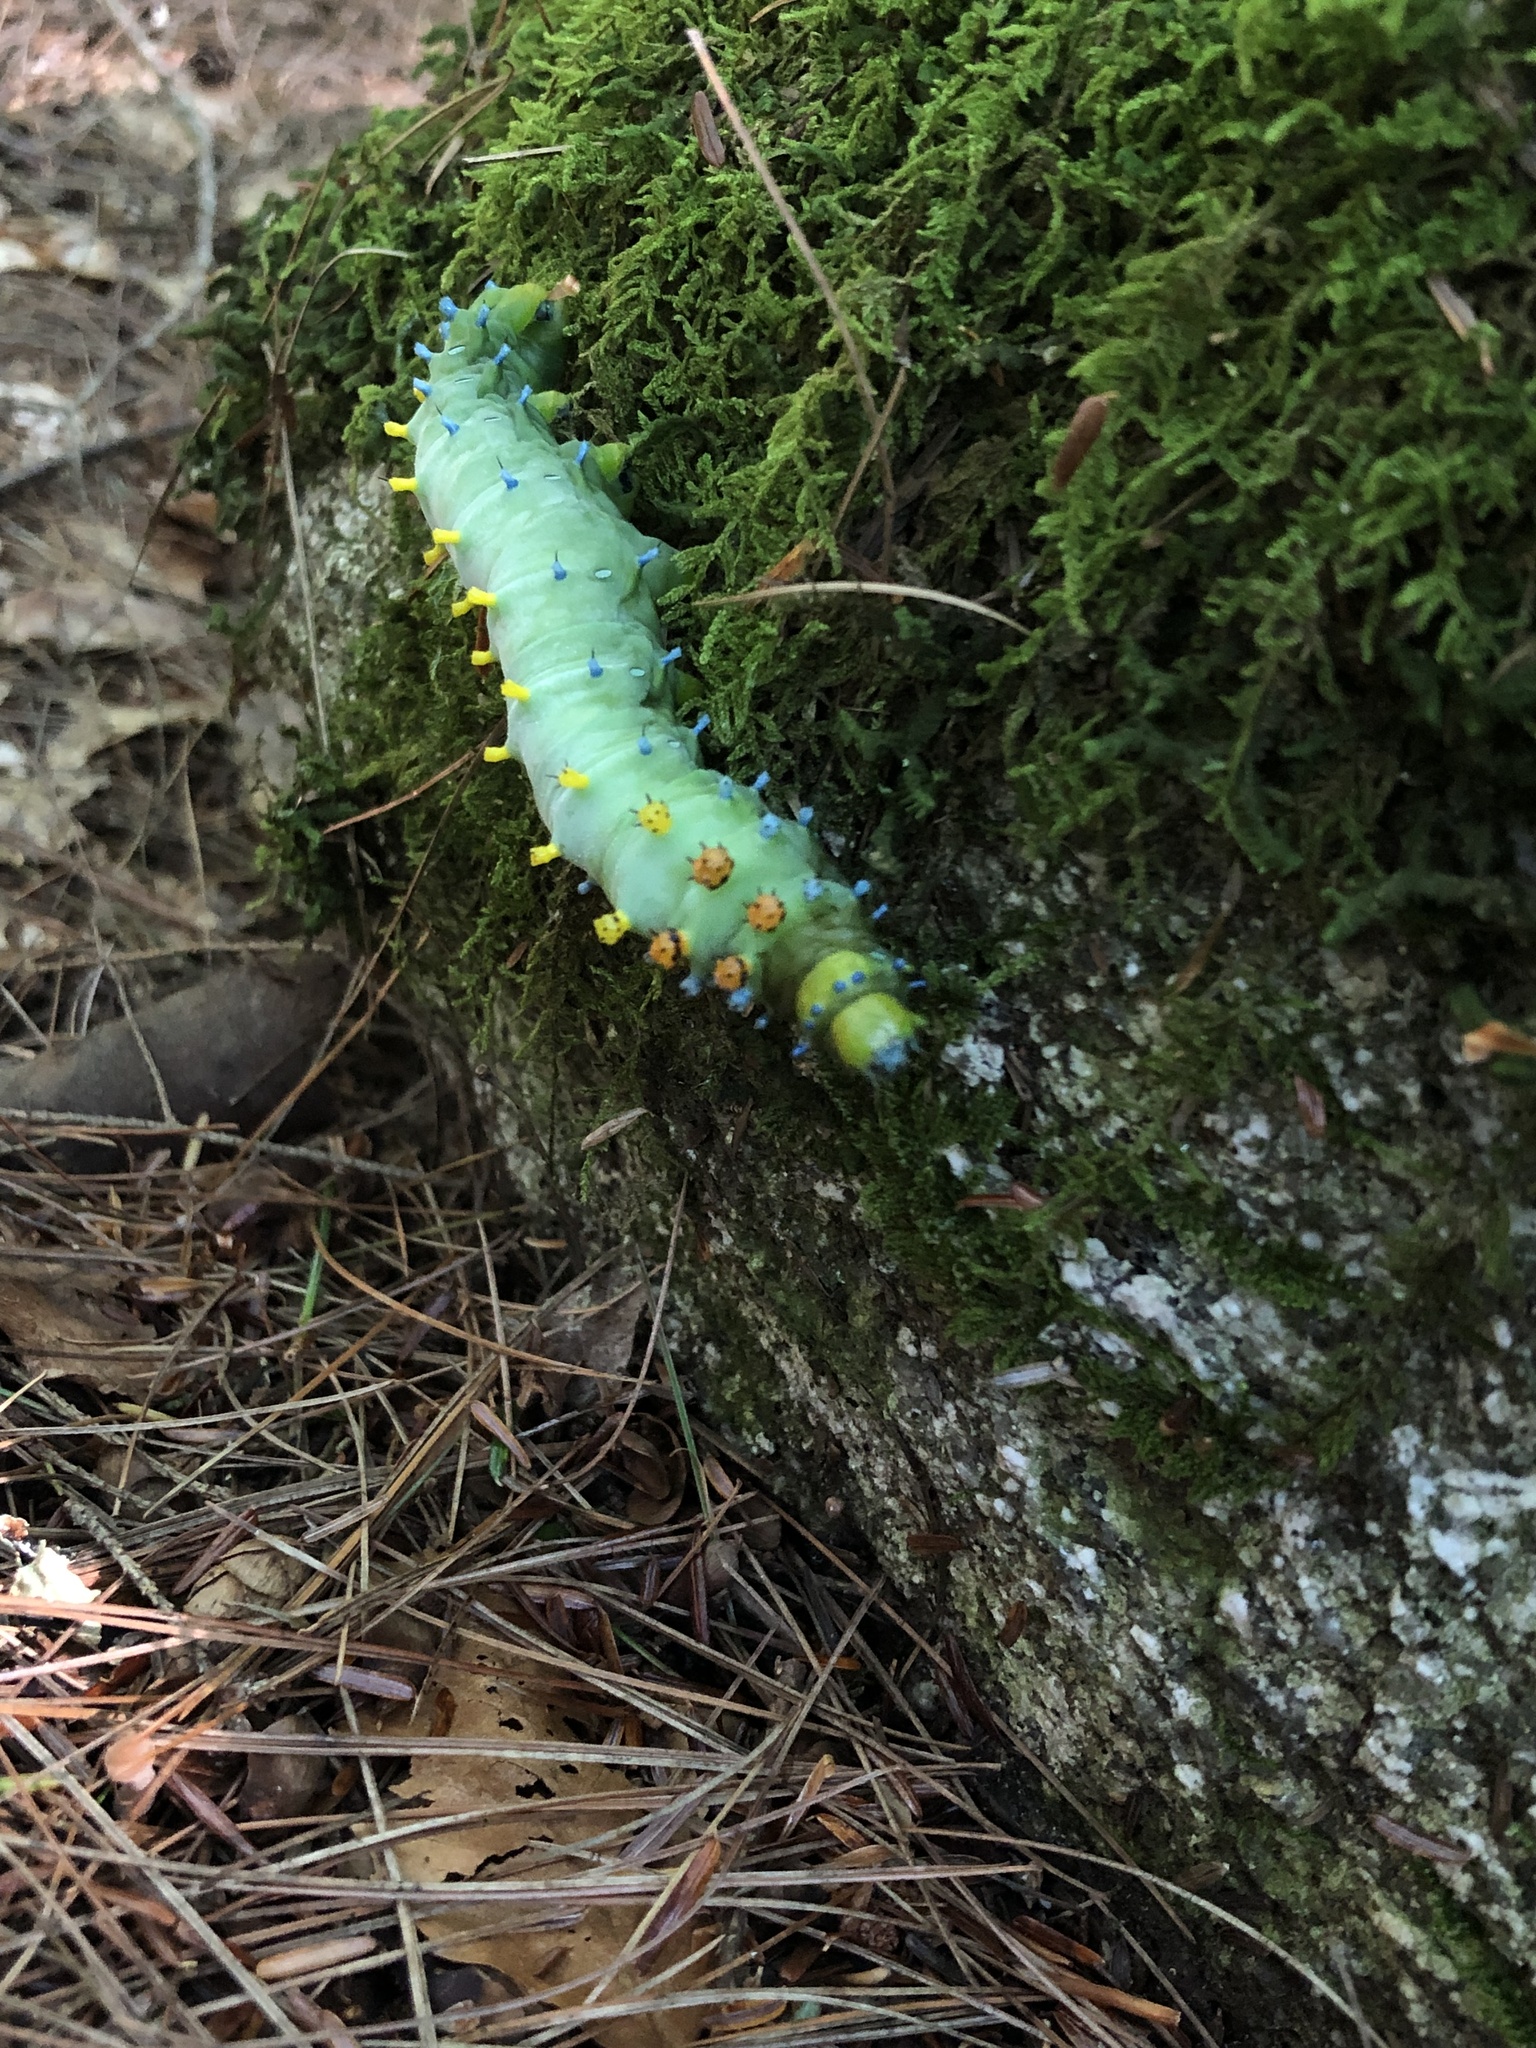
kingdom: Animalia
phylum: Arthropoda
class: Insecta
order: Lepidoptera
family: Saturniidae
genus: Hyalophora
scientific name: Hyalophora cecropia
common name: Cecropia silkmoth
